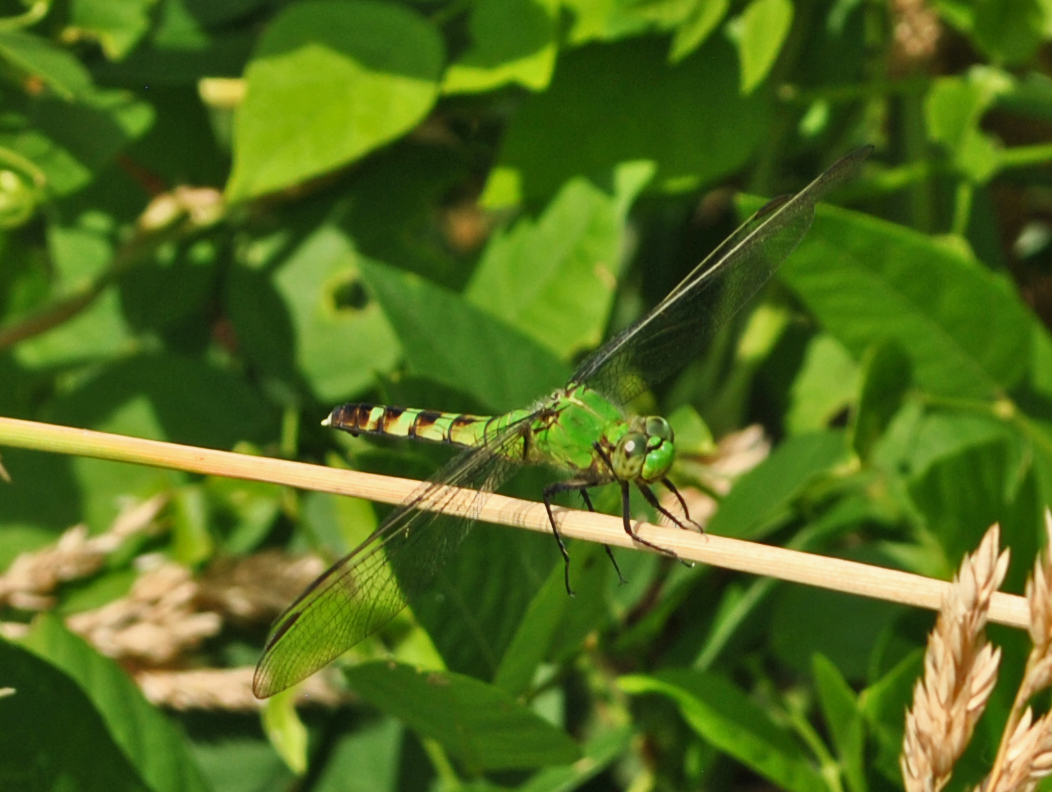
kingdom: Animalia
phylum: Arthropoda
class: Insecta
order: Odonata
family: Libellulidae
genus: Erythemis
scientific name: Erythemis simplicicollis
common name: Eastern pondhawk
